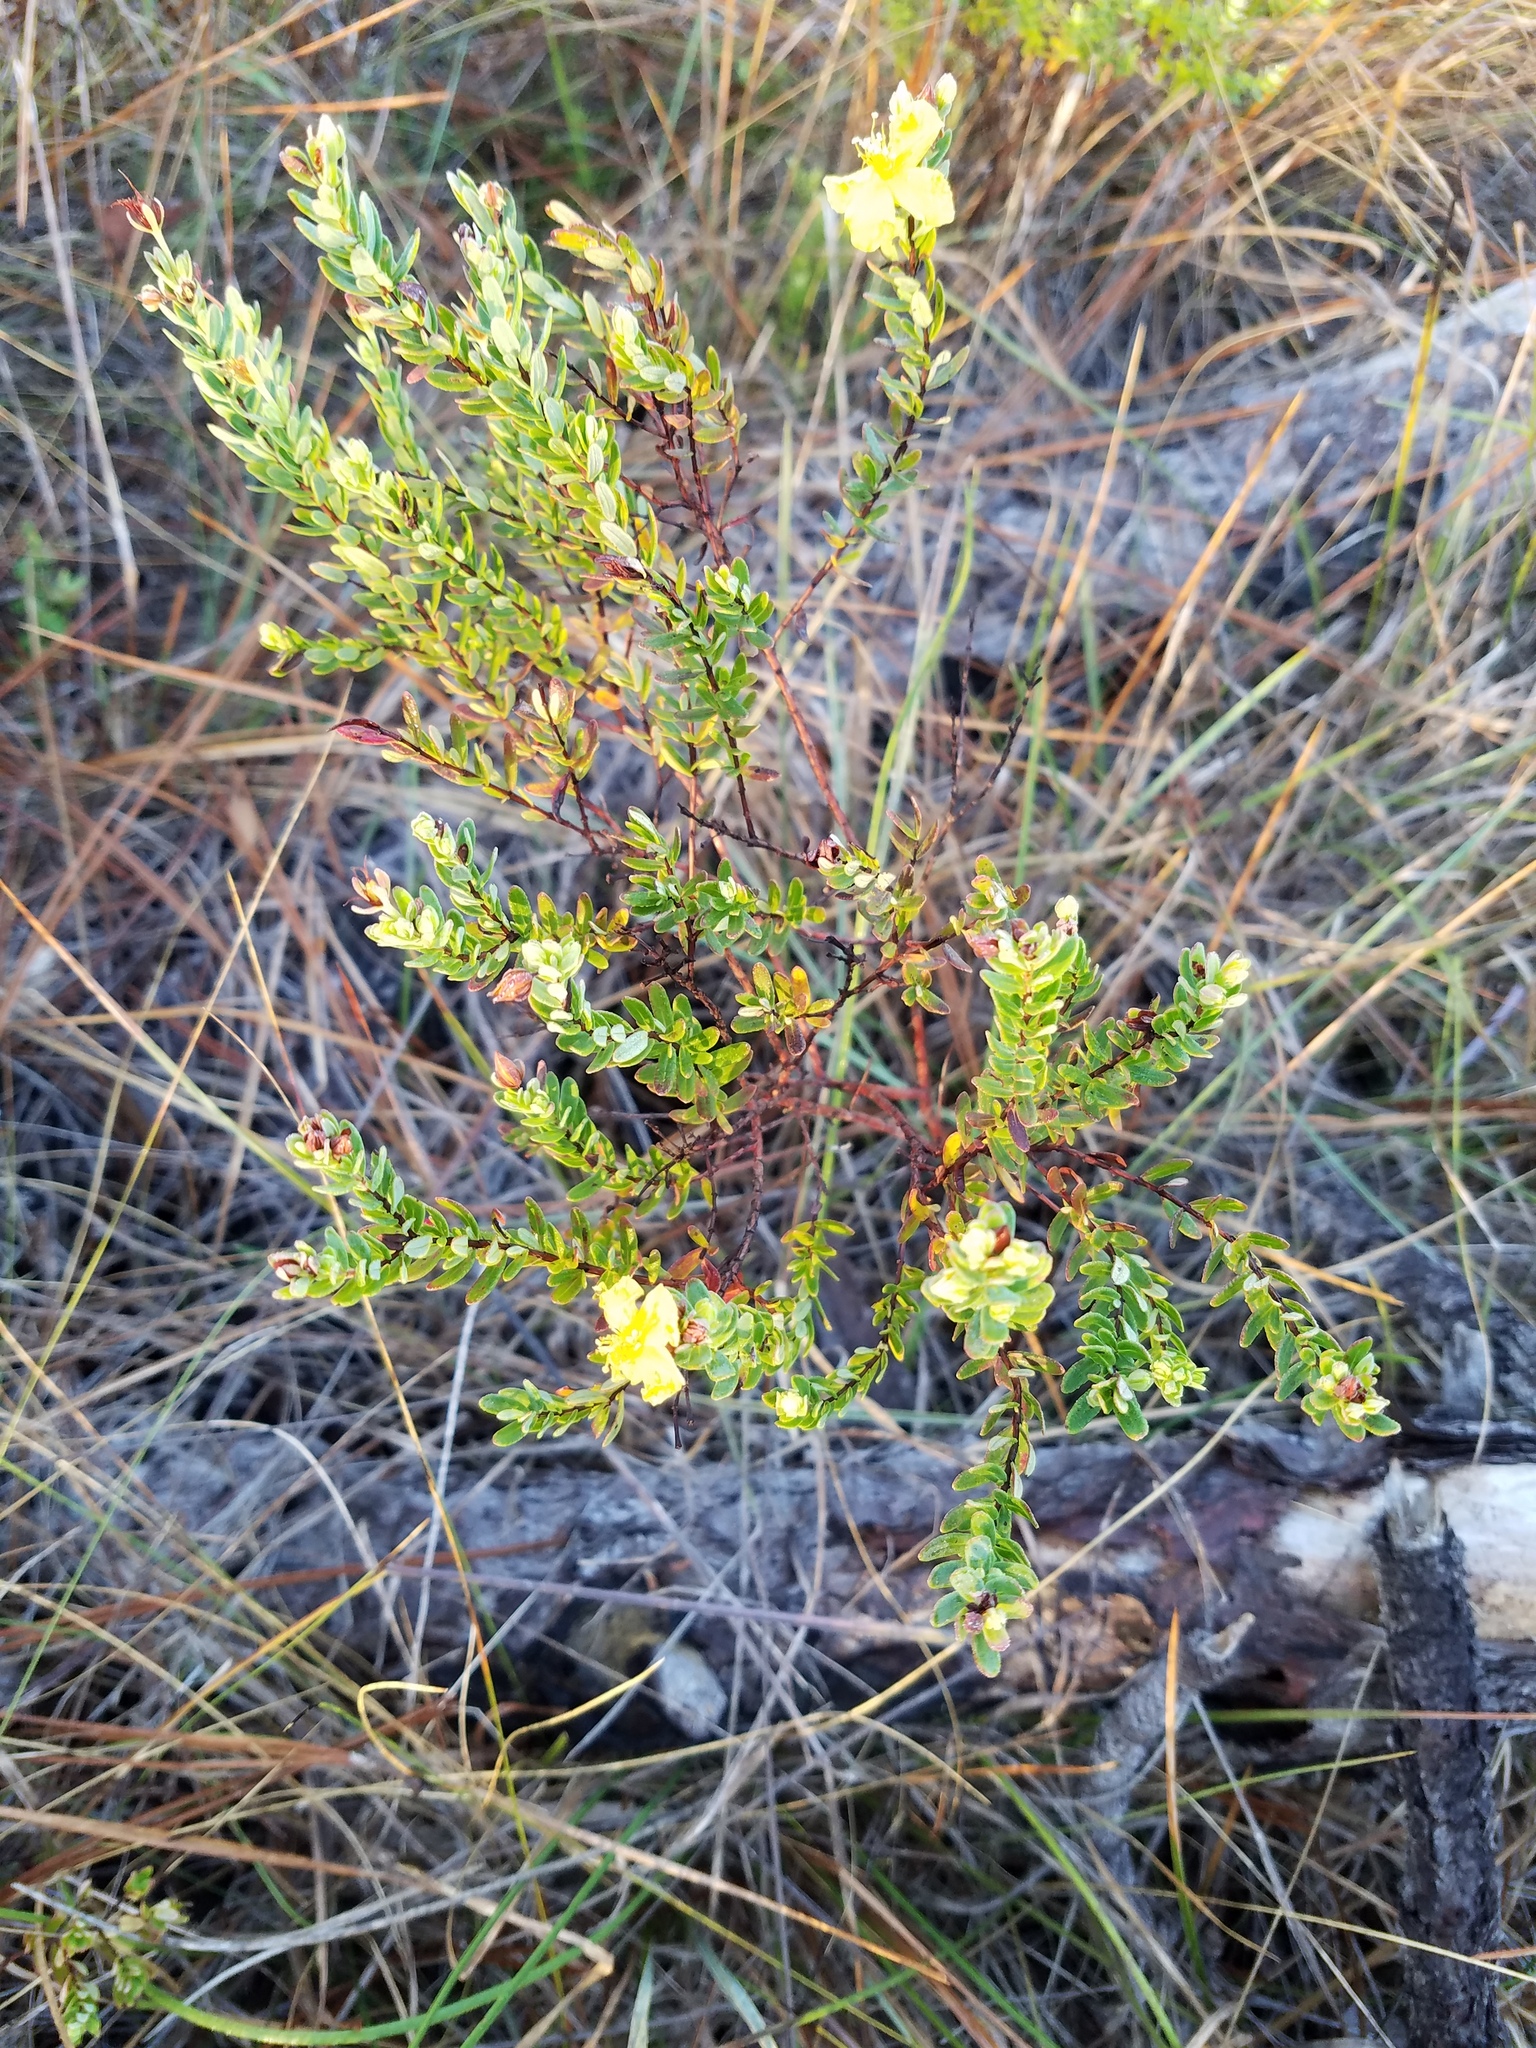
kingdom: Plantae
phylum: Tracheophyta
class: Magnoliopsida
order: Malpighiales
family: Hypericaceae
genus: Hypericum
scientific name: Hypericum microsepalum
